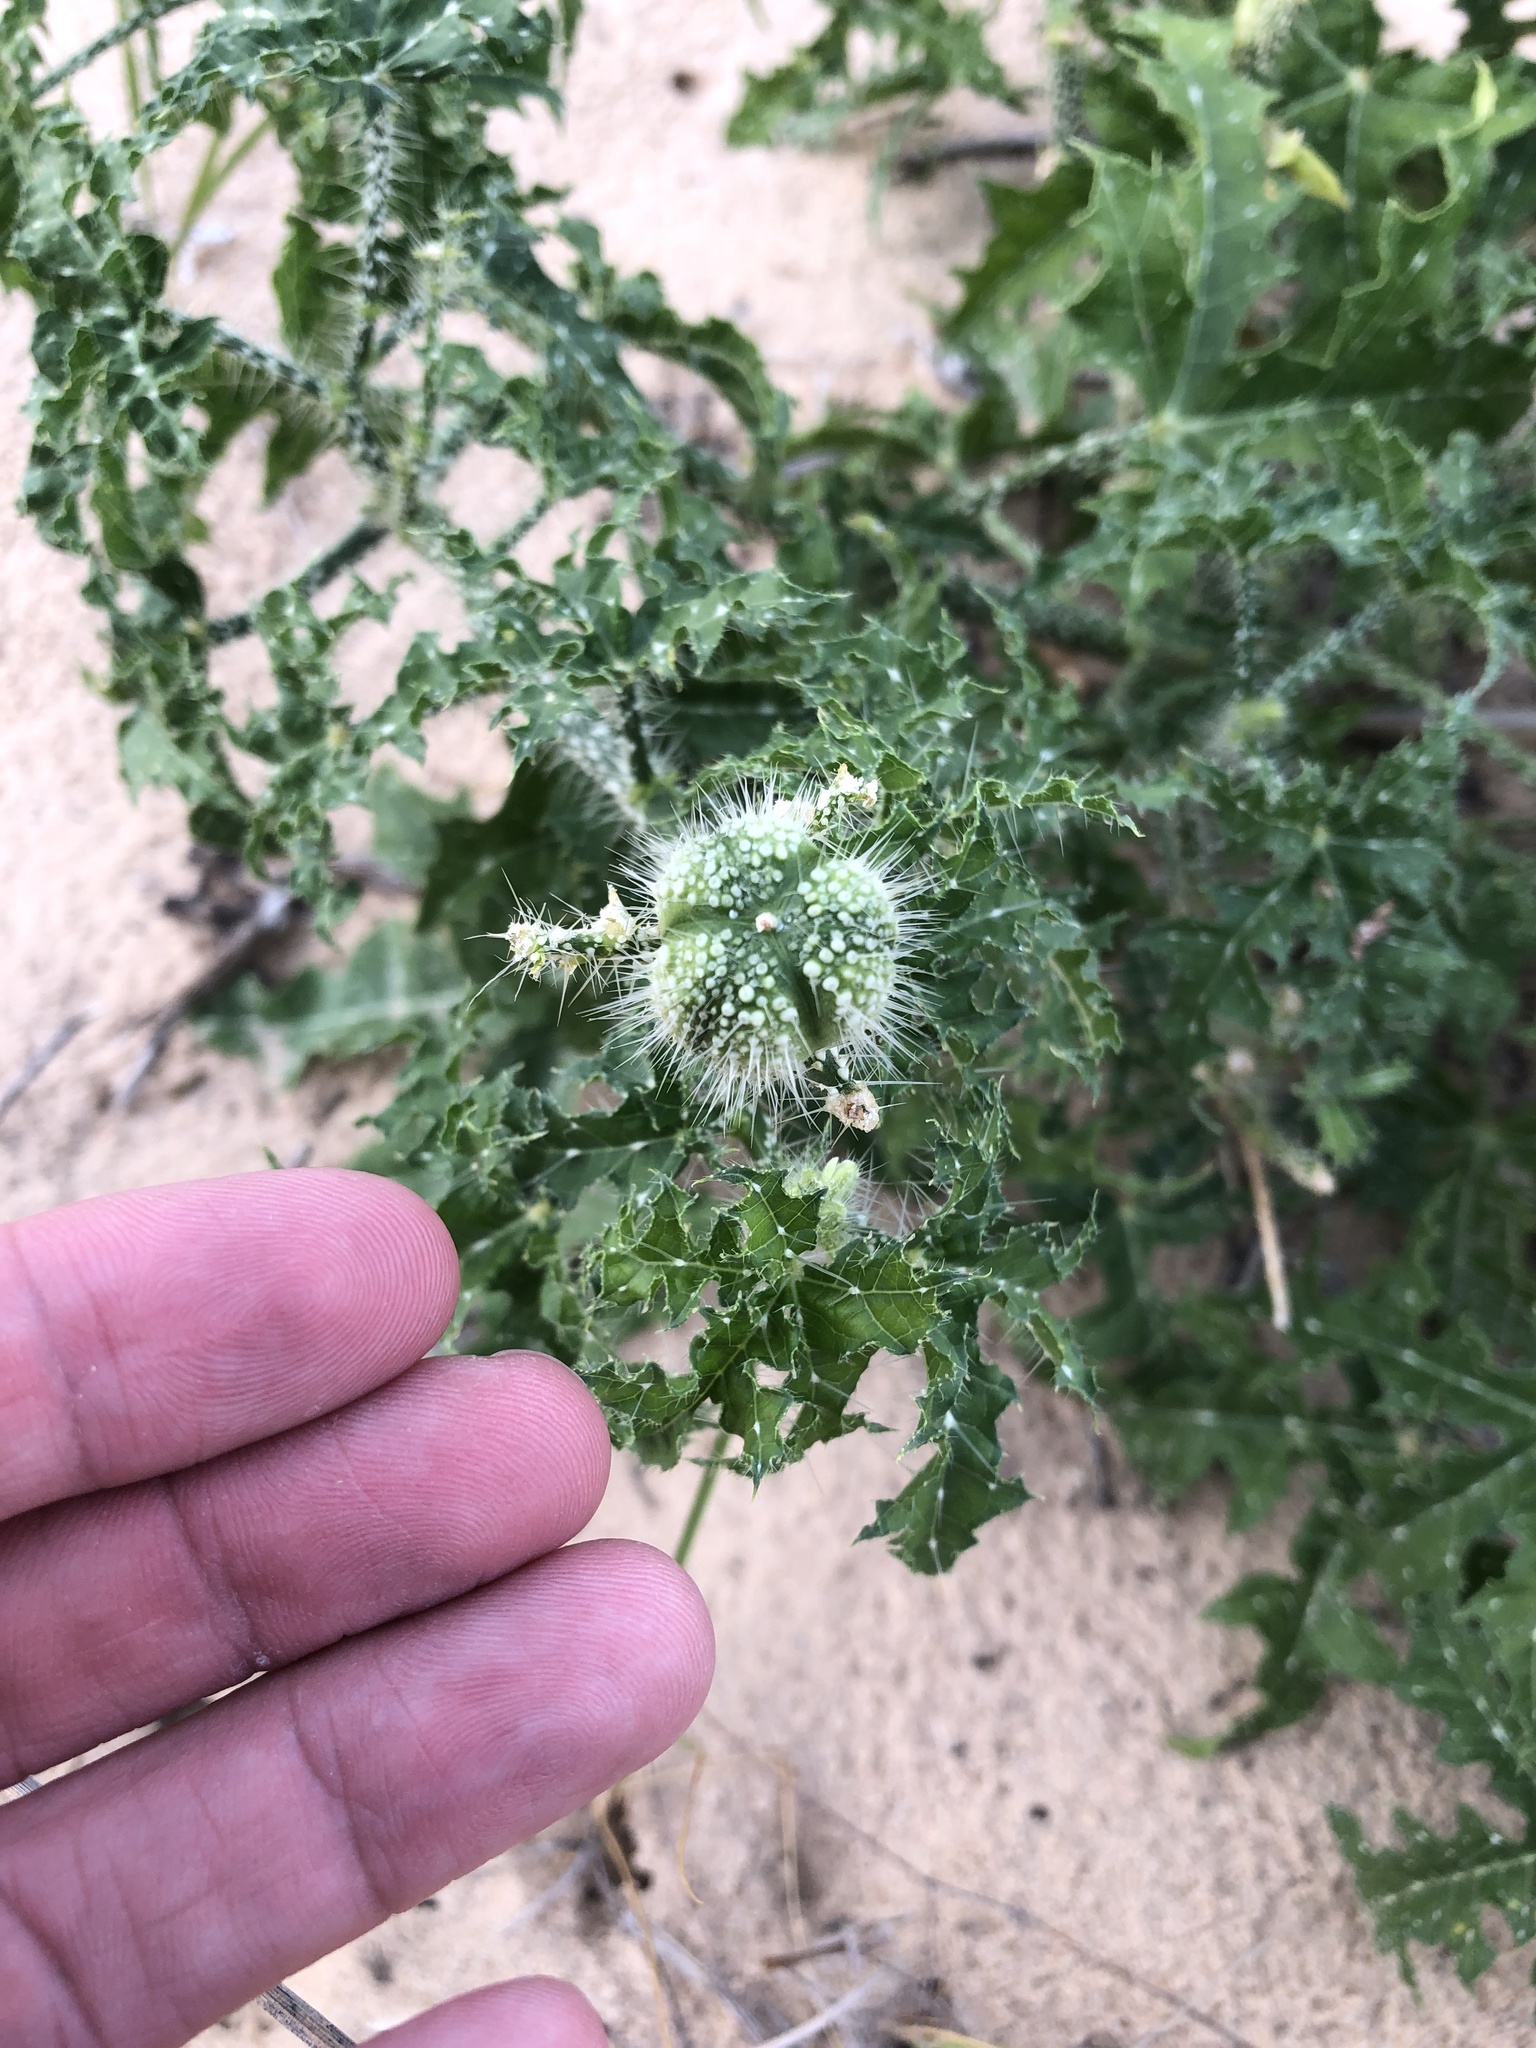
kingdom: Plantae
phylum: Tracheophyta
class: Magnoliopsida
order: Malpighiales
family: Euphorbiaceae
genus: Cnidoscolus
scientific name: Cnidoscolus texanus
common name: Texas bull-nettle
